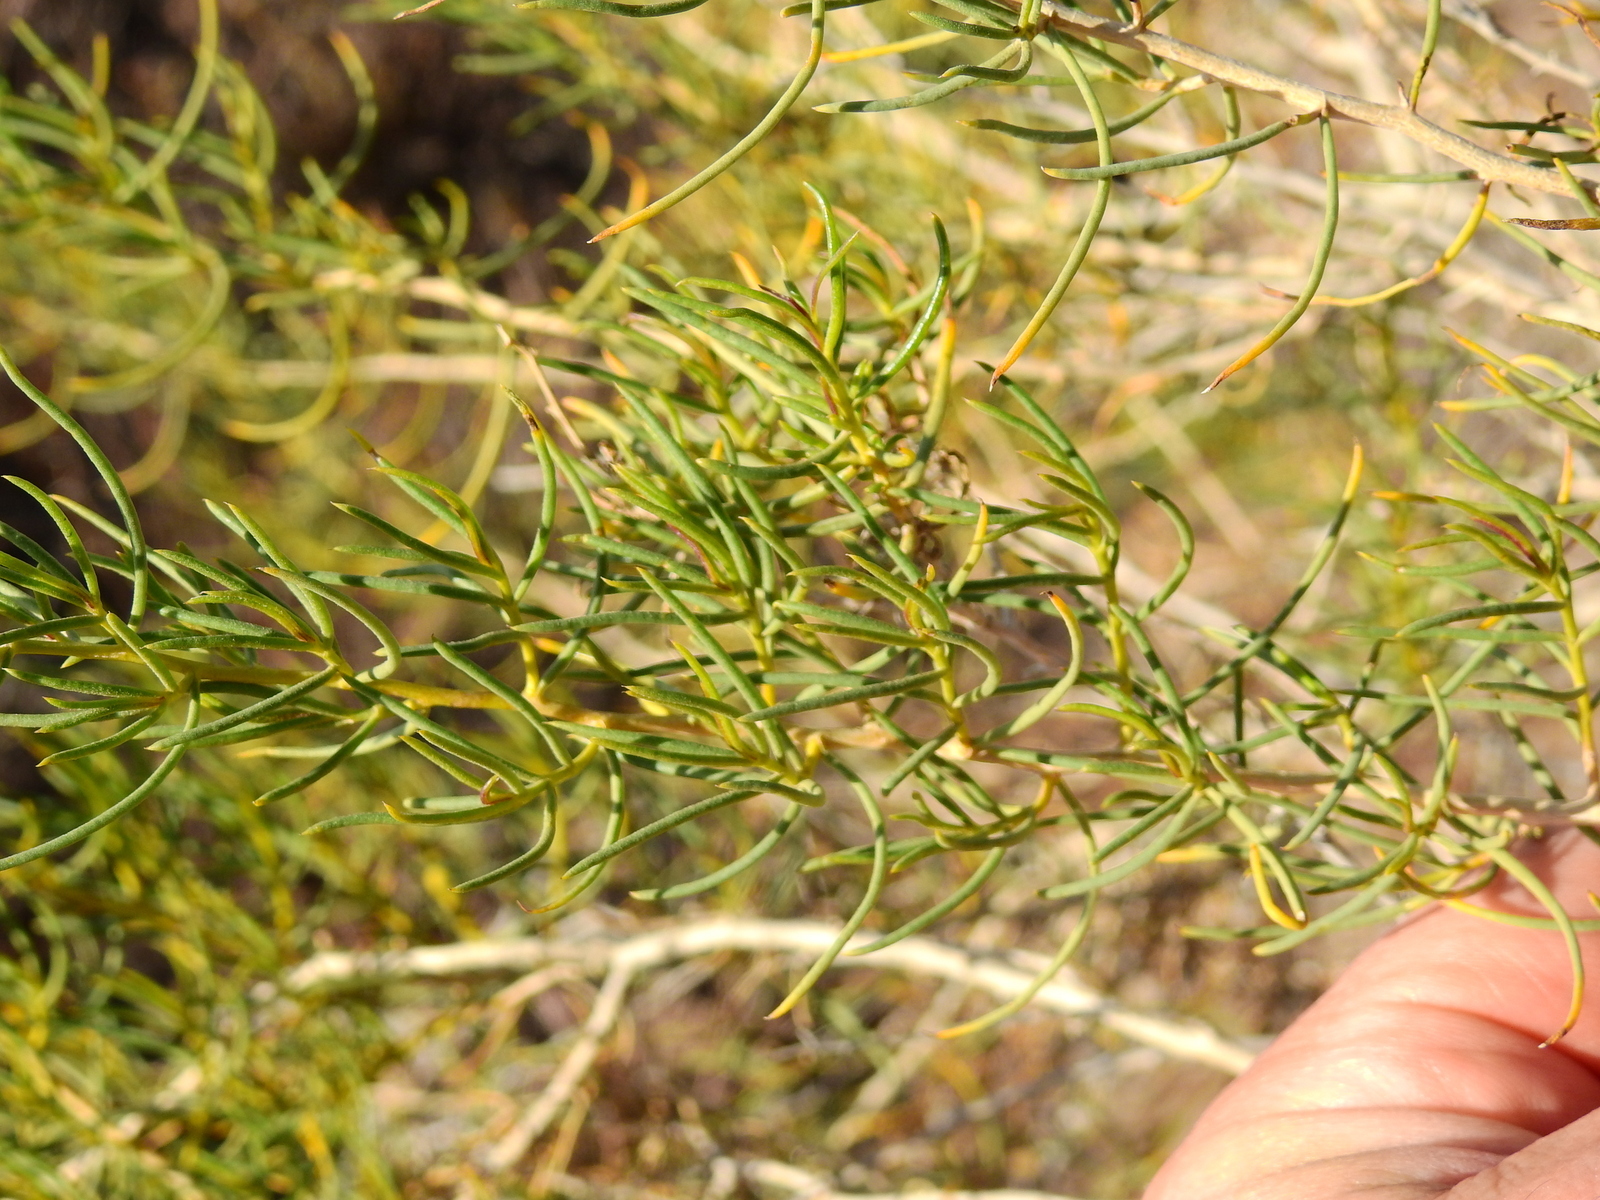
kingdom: Plantae
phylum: Tracheophyta
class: Magnoliopsida
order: Asterales
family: Asteraceae
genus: Senecio
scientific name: Senecio subulatus
